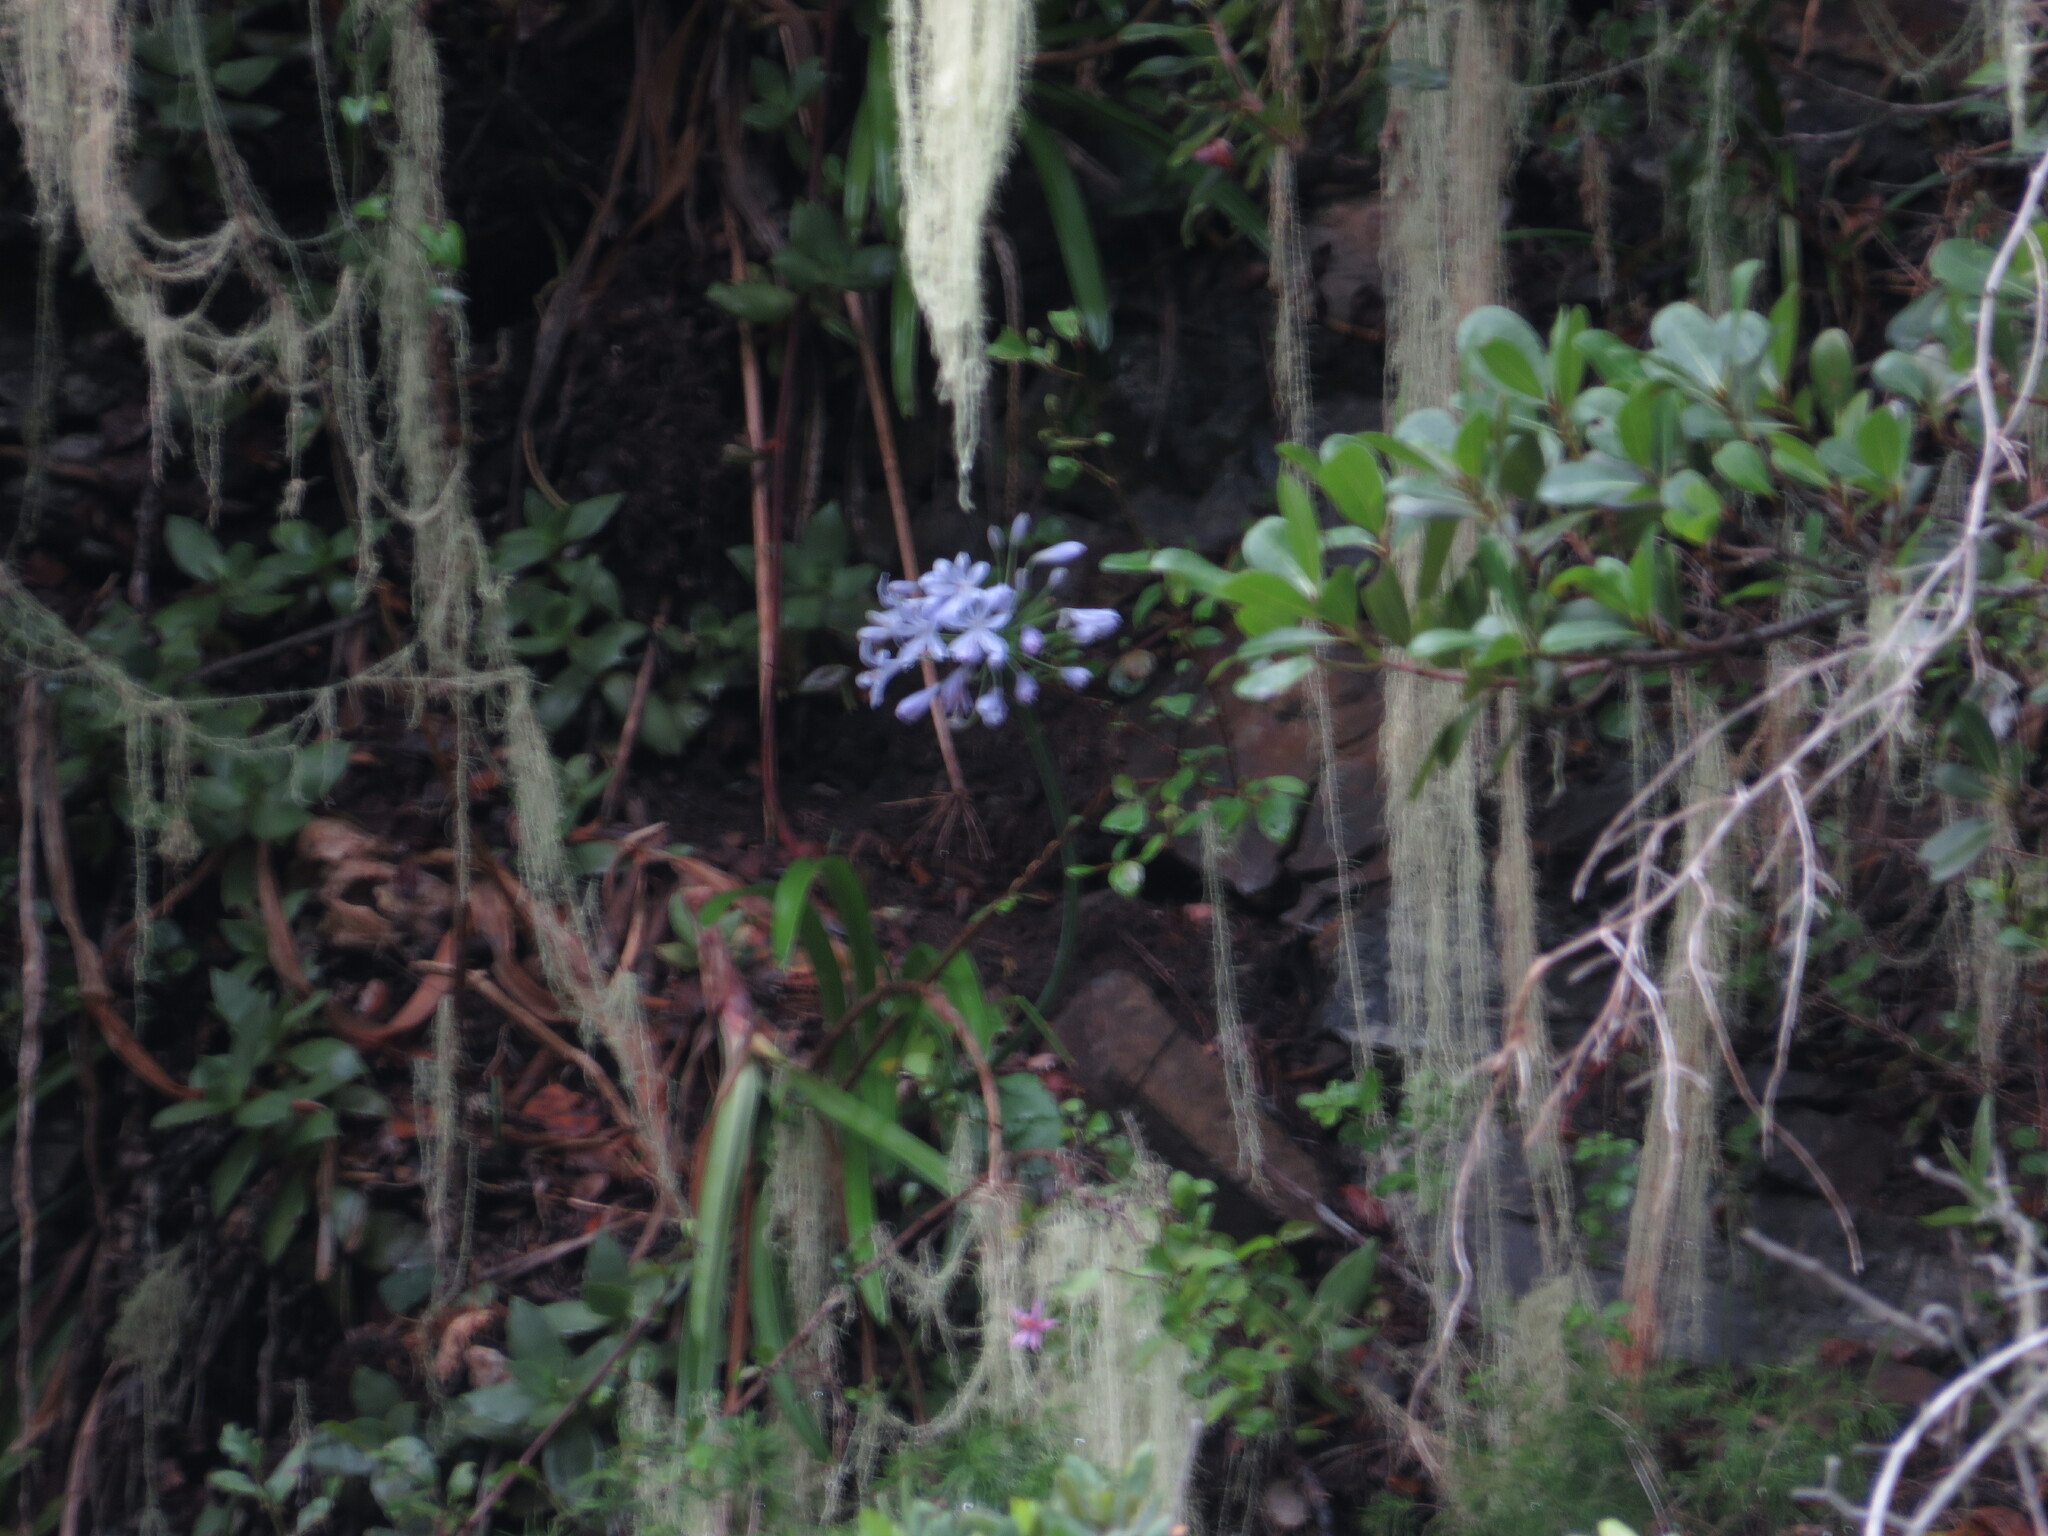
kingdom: Plantae
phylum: Tracheophyta
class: Liliopsida
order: Asparagales
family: Amaryllidaceae
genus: Agapanthus
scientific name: Agapanthus praecox
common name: African-lily
